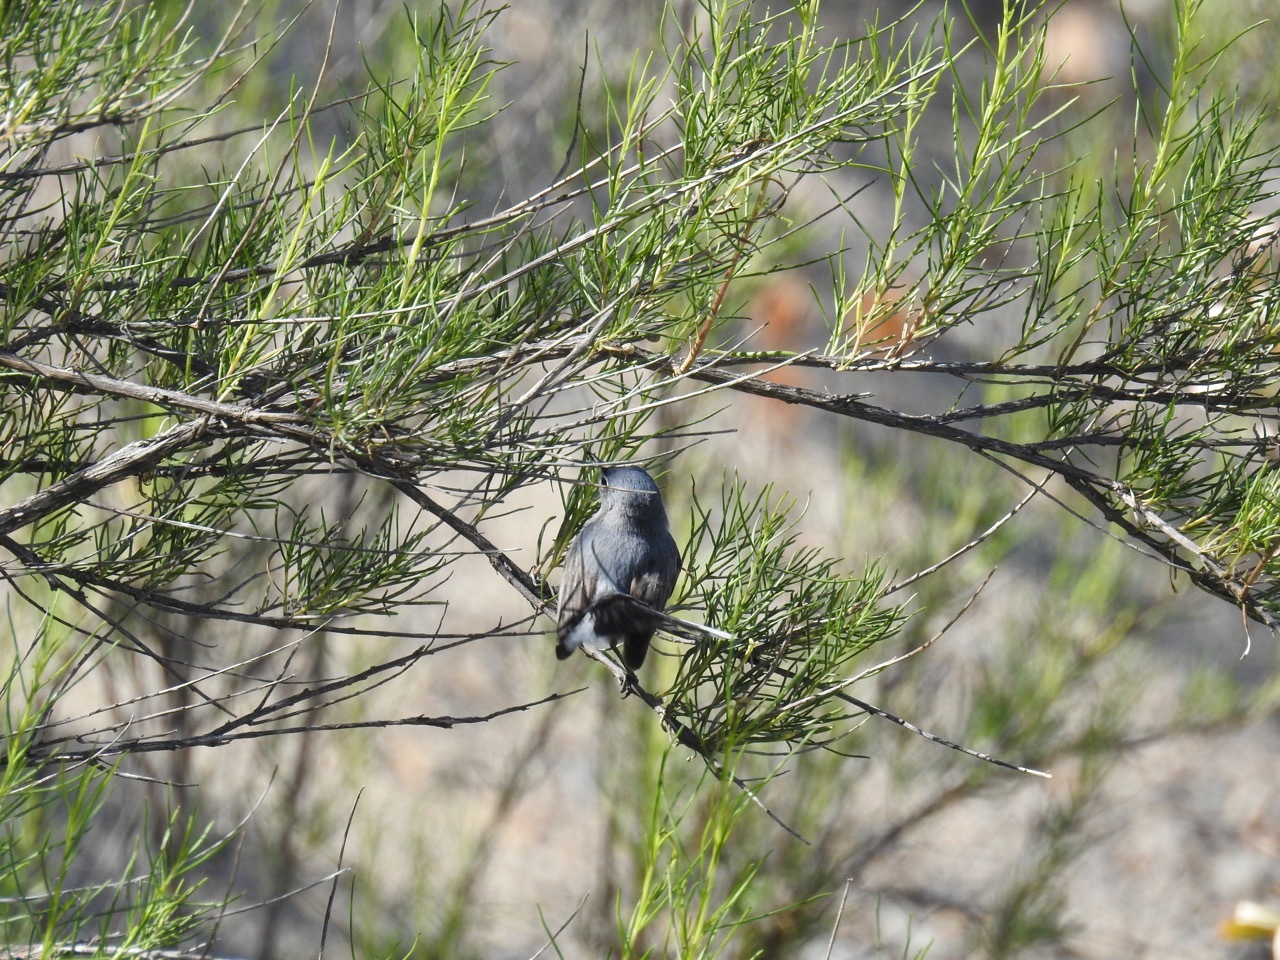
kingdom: Animalia
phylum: Chordata
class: Aves
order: Passeriformes
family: Polioptilidae
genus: Polioptila
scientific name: Polioptila caerulea
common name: Blue-gray gnatcatcher
